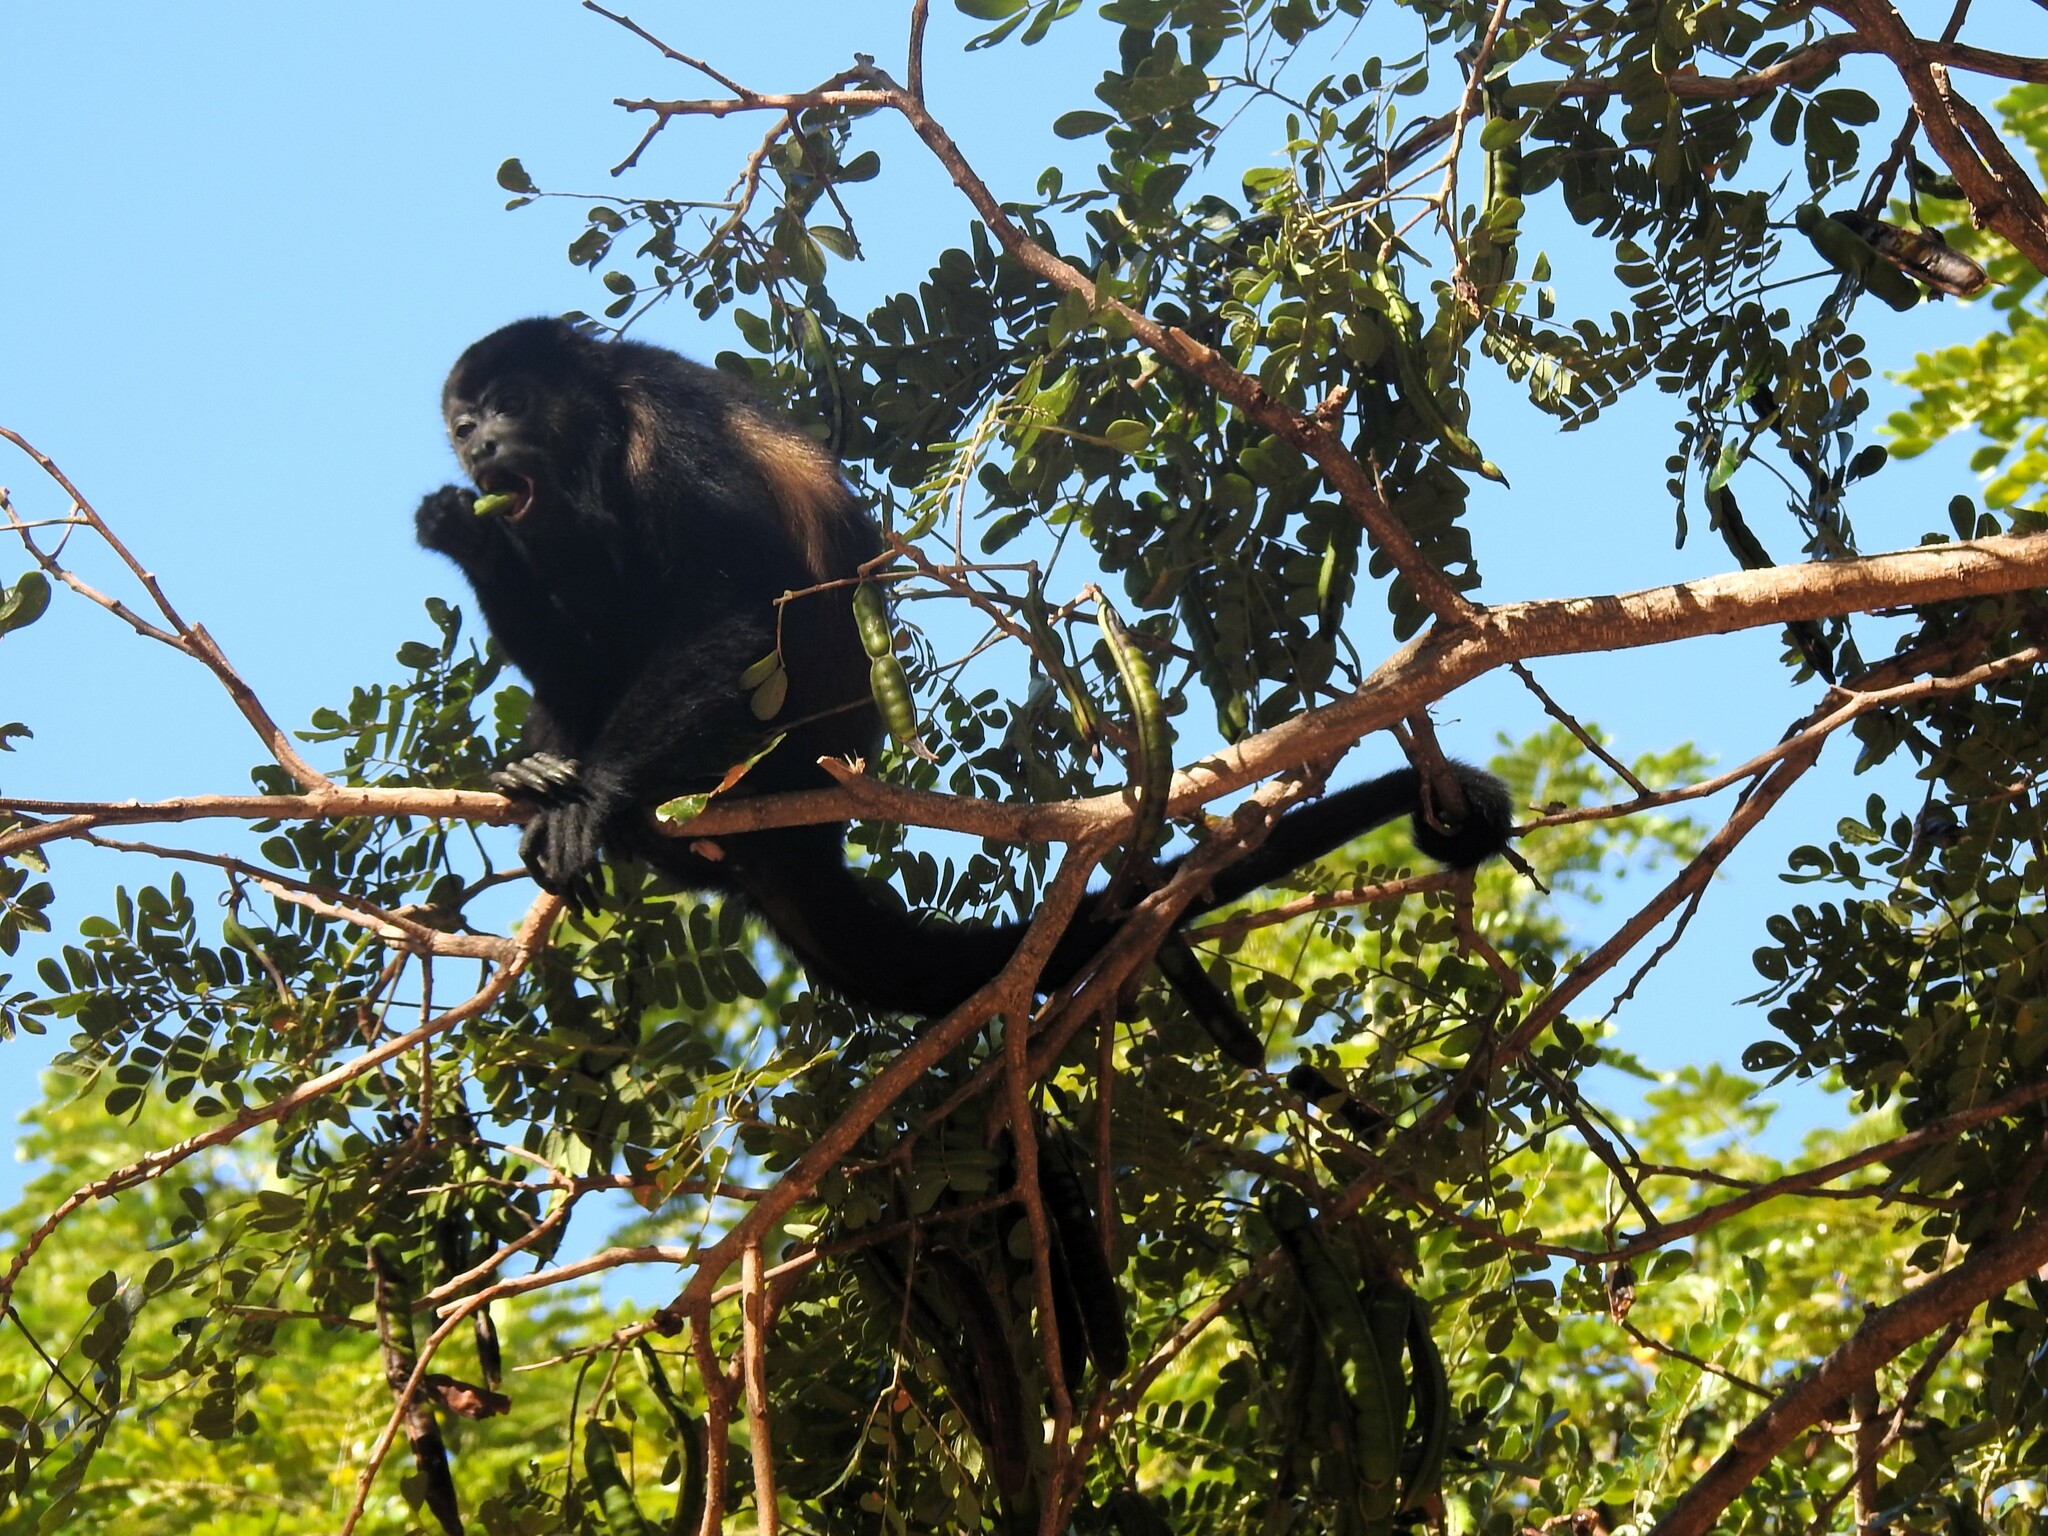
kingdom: Animalia
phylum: Chordata
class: Mammalia
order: Primates
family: Atelidae
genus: Alouatta
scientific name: Alouatta palliata
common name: Mantled howler
